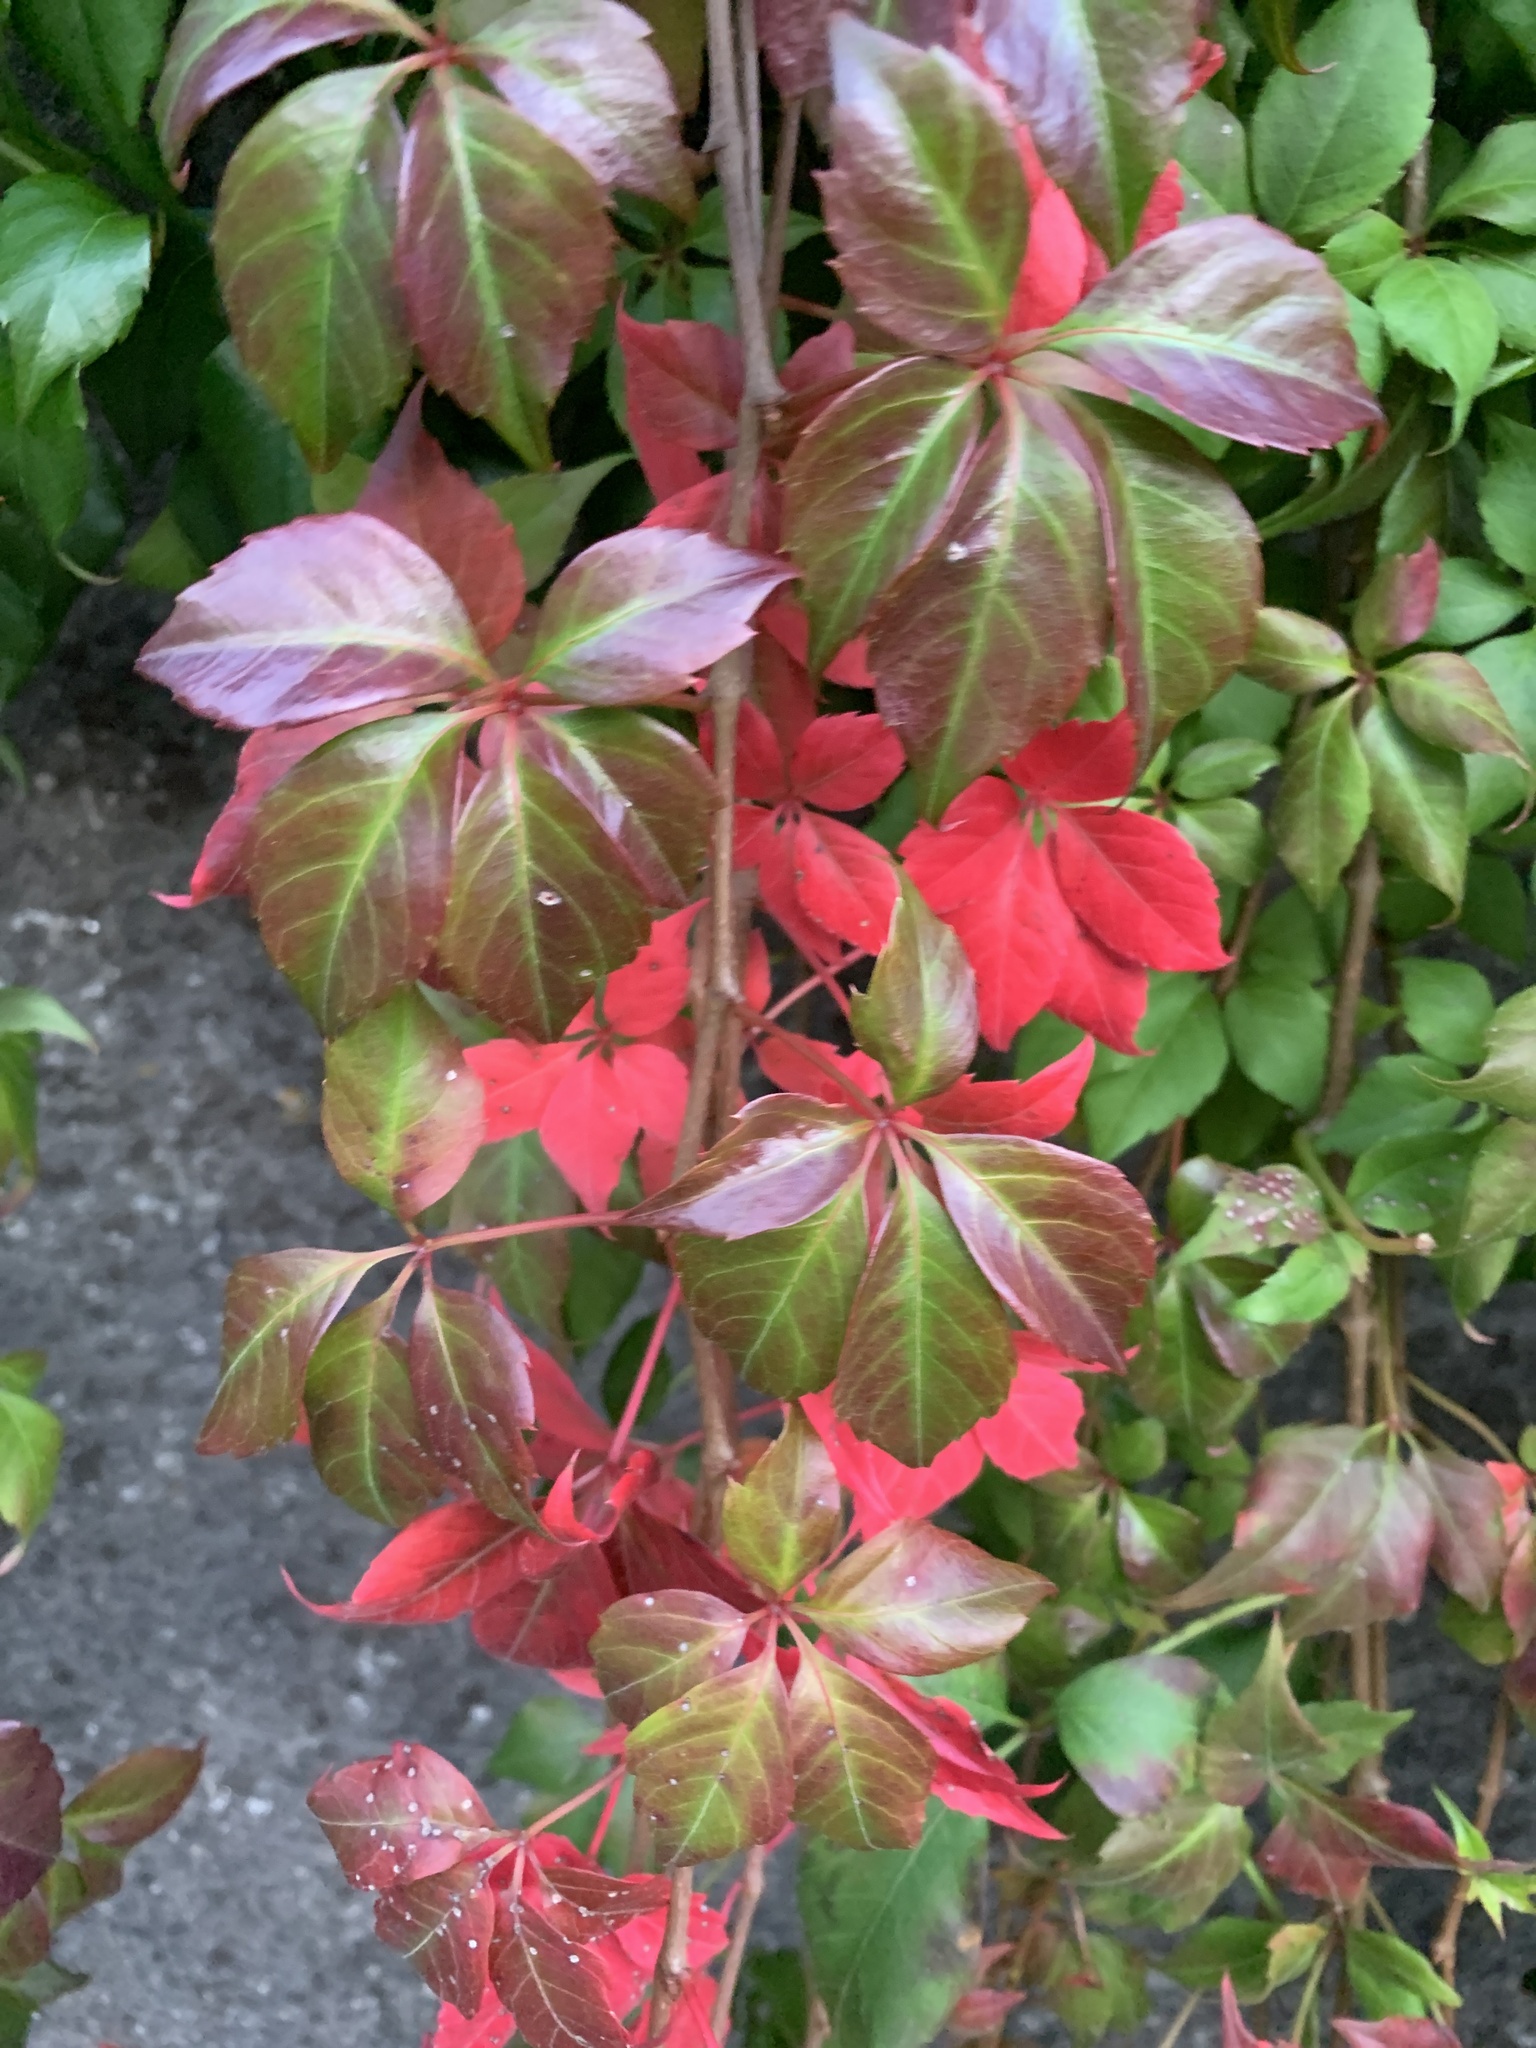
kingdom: Plantae
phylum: Tracheophyta
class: Magnoliopsida
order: Vitales
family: Vitaceae
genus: Parthenocissus
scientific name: Parthenocissus quinquefolia
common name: Virginia-creeper
